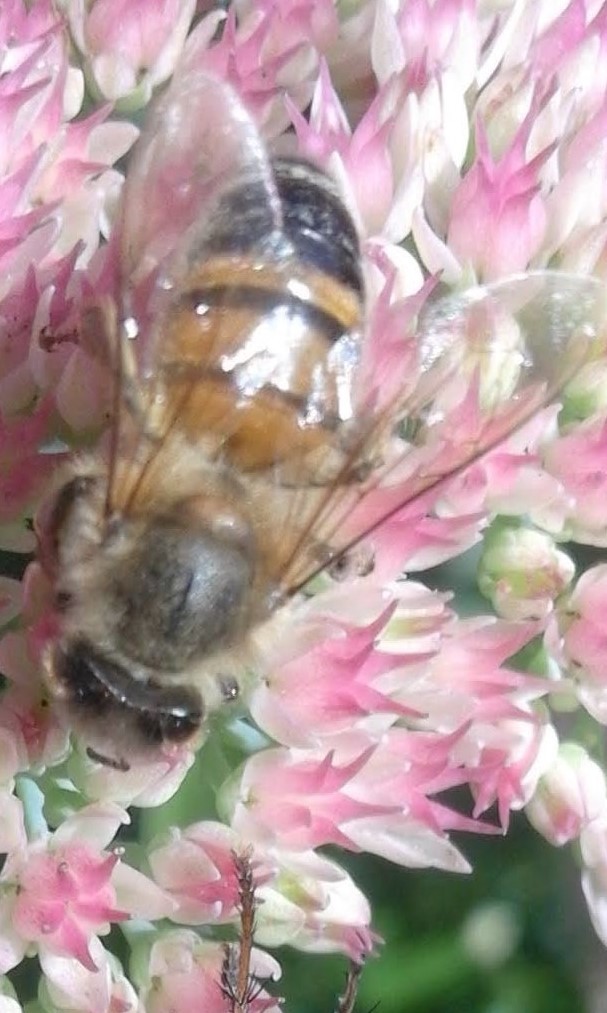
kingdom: Animalia
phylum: Arthropoda
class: Insecta
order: Hymenoptera
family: Apidae
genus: Apis
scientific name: Apis mellifera
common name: Honey bee
